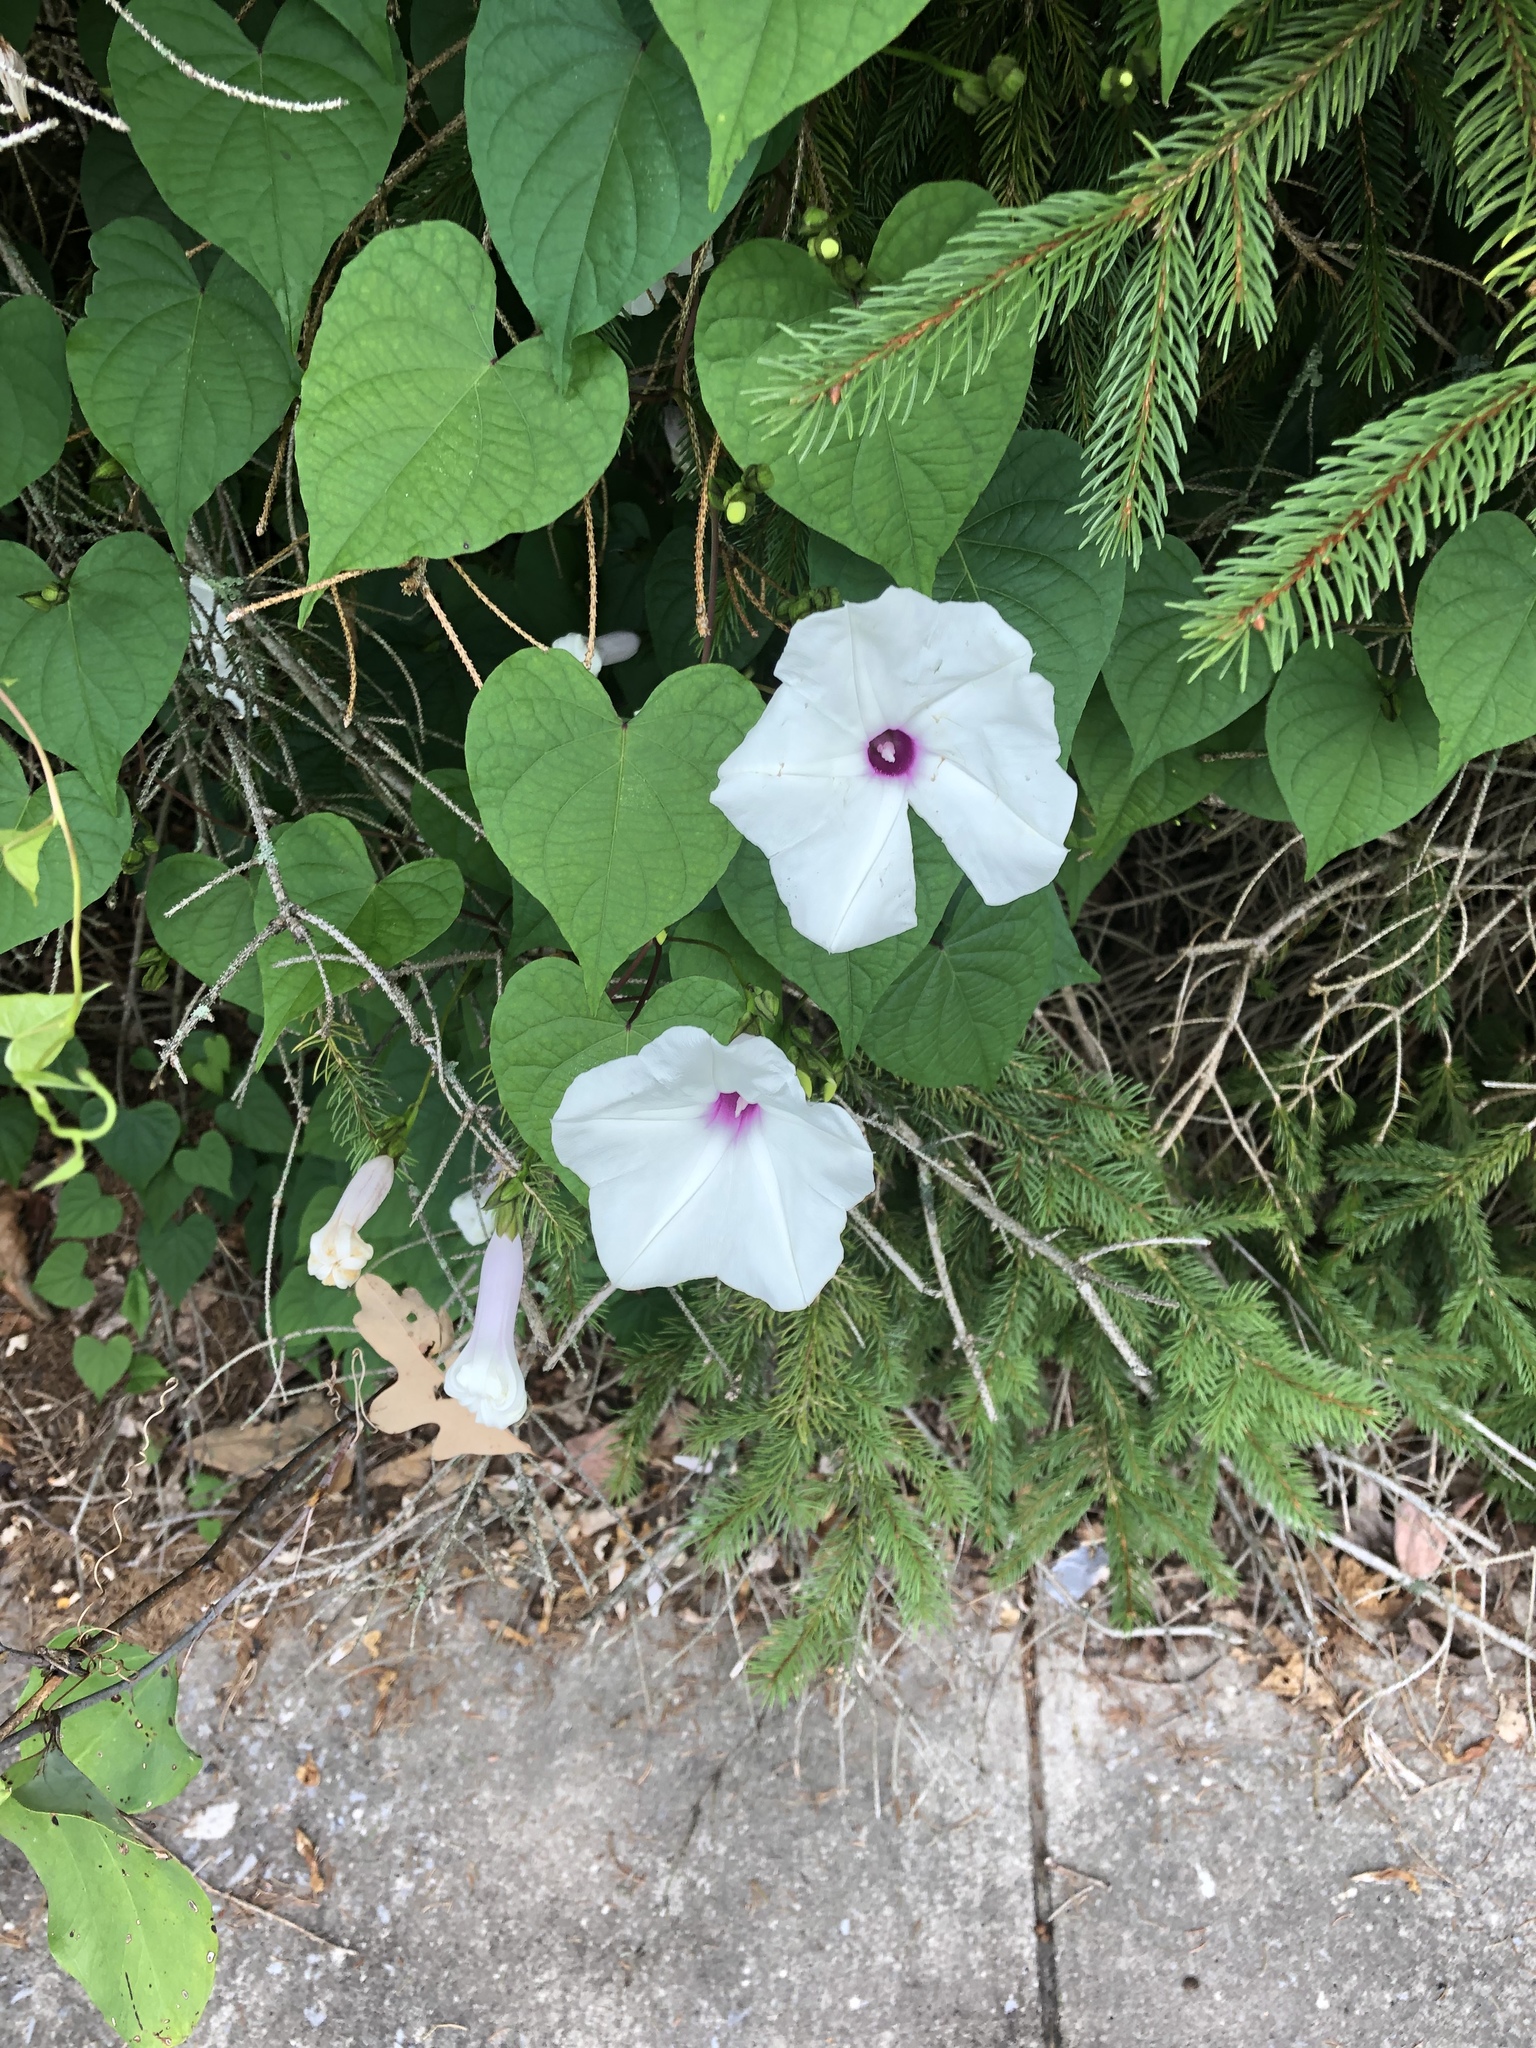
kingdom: Plantae
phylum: Tracheophyta
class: Magnoliopsida
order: Solanales
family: Convolvulaceae
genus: Ipomoea
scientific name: Ipomoea pandurata
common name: Man-of-the-earth
